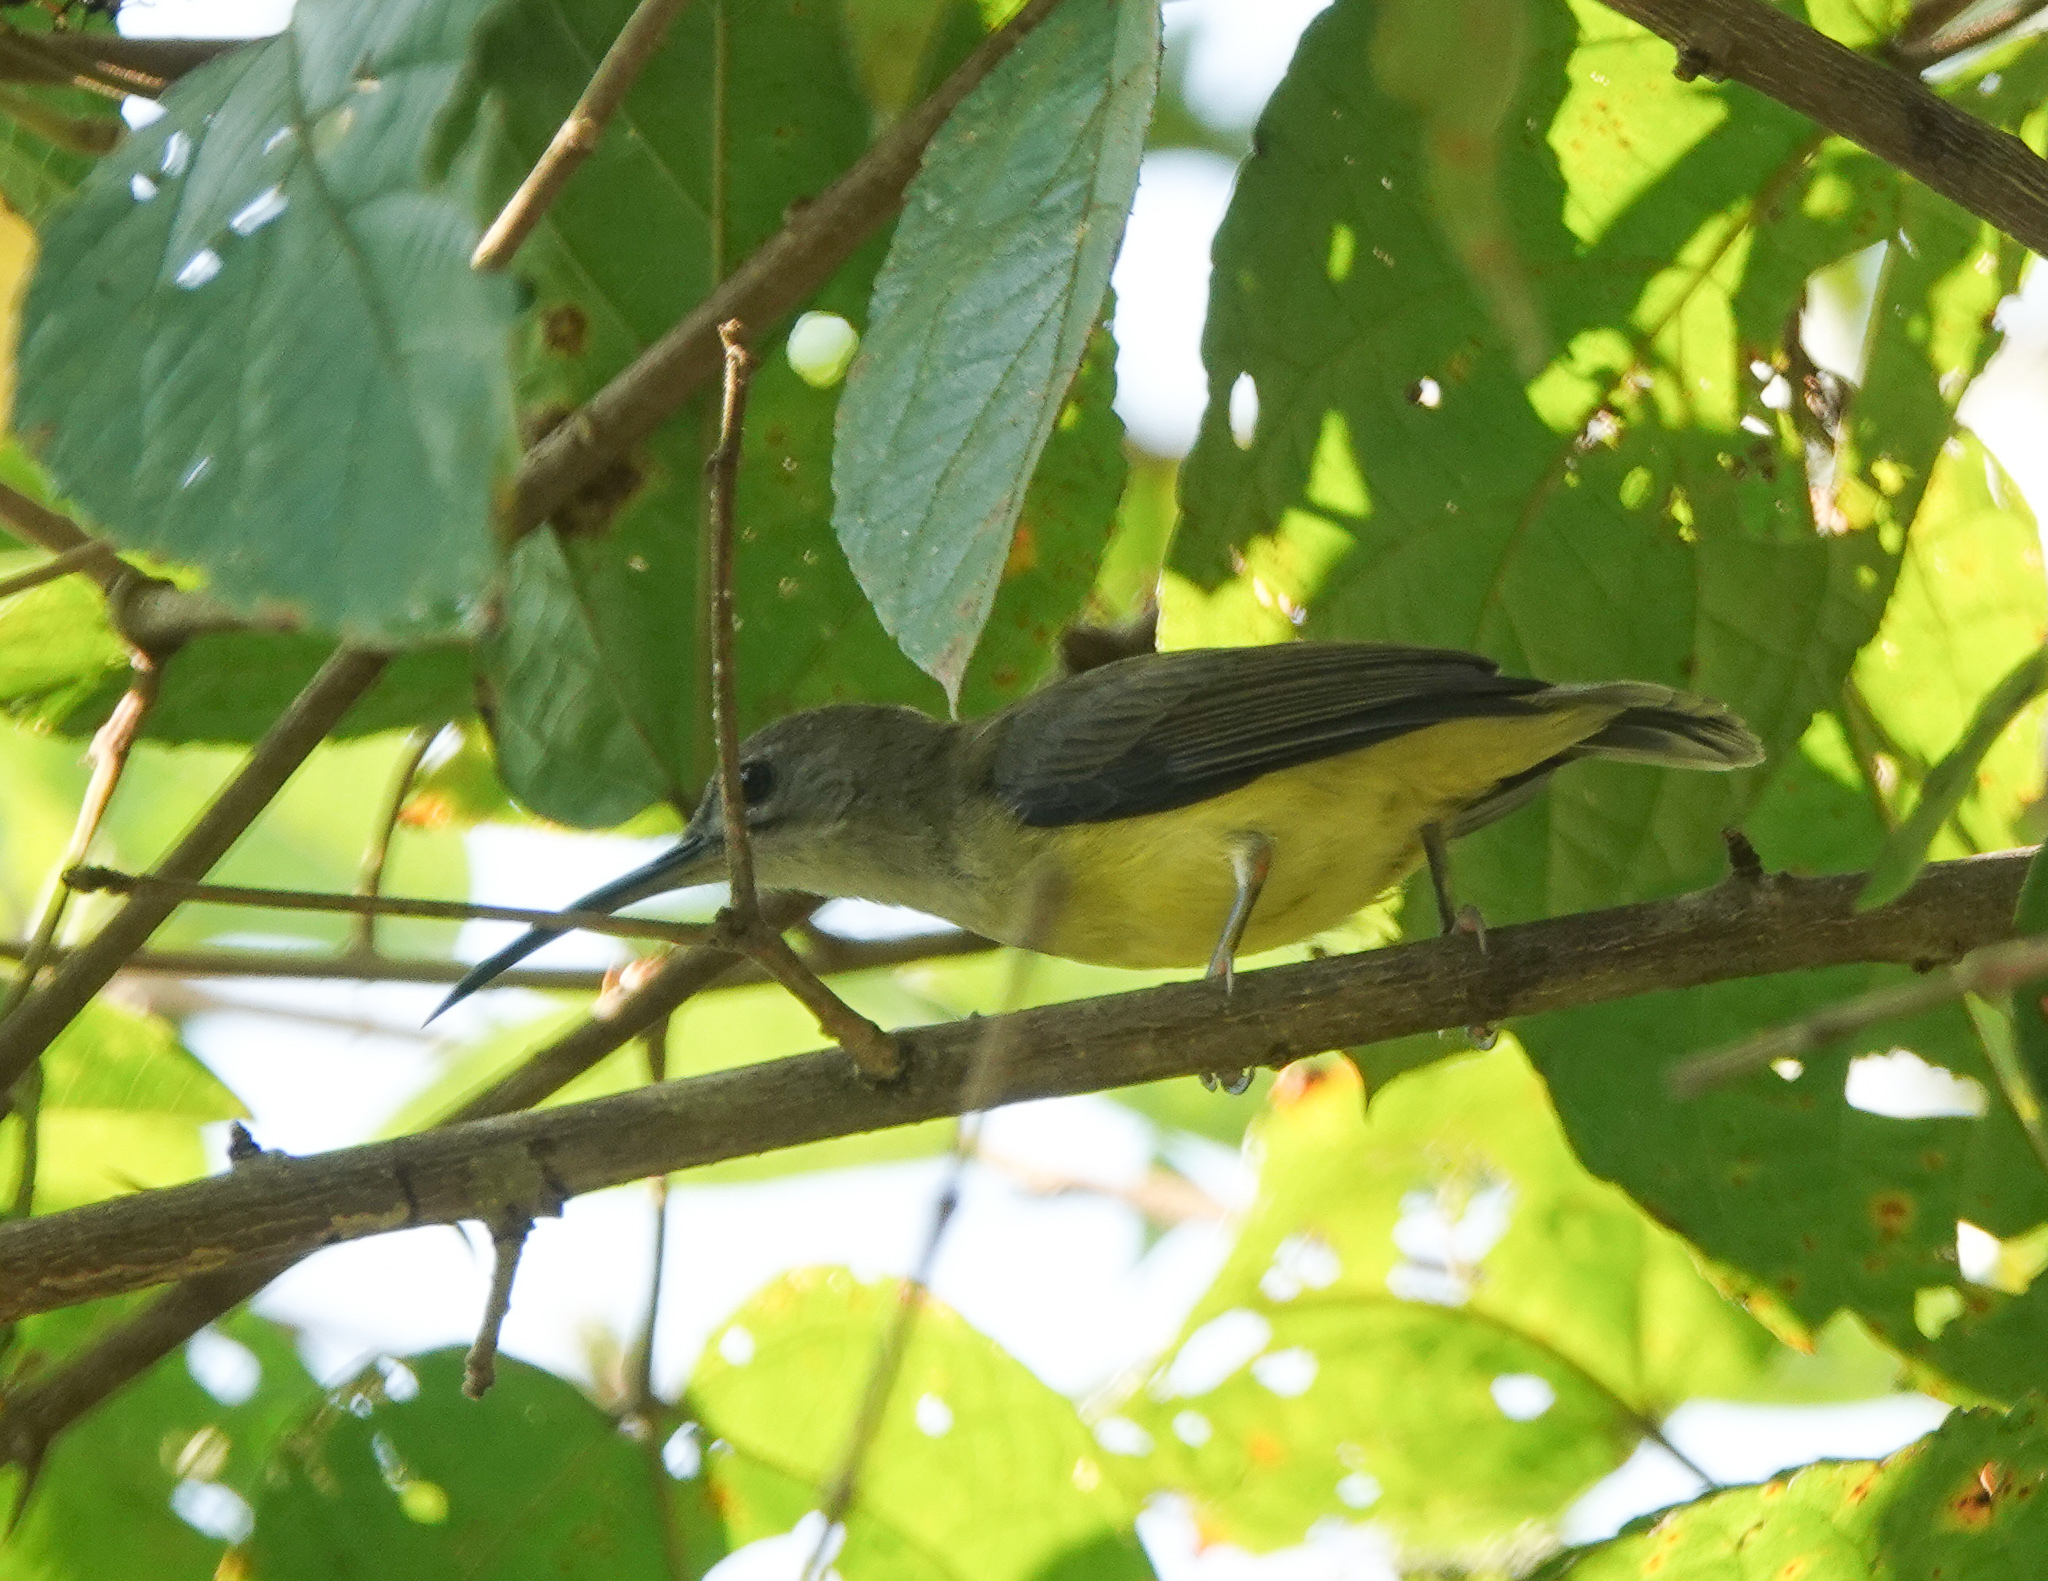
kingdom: Animalia
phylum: Chordata
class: Aves
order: Passeriformes
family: Nectariniidae
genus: Arachnothera
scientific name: Arachnothera longirostra
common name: Little spiderhunter
